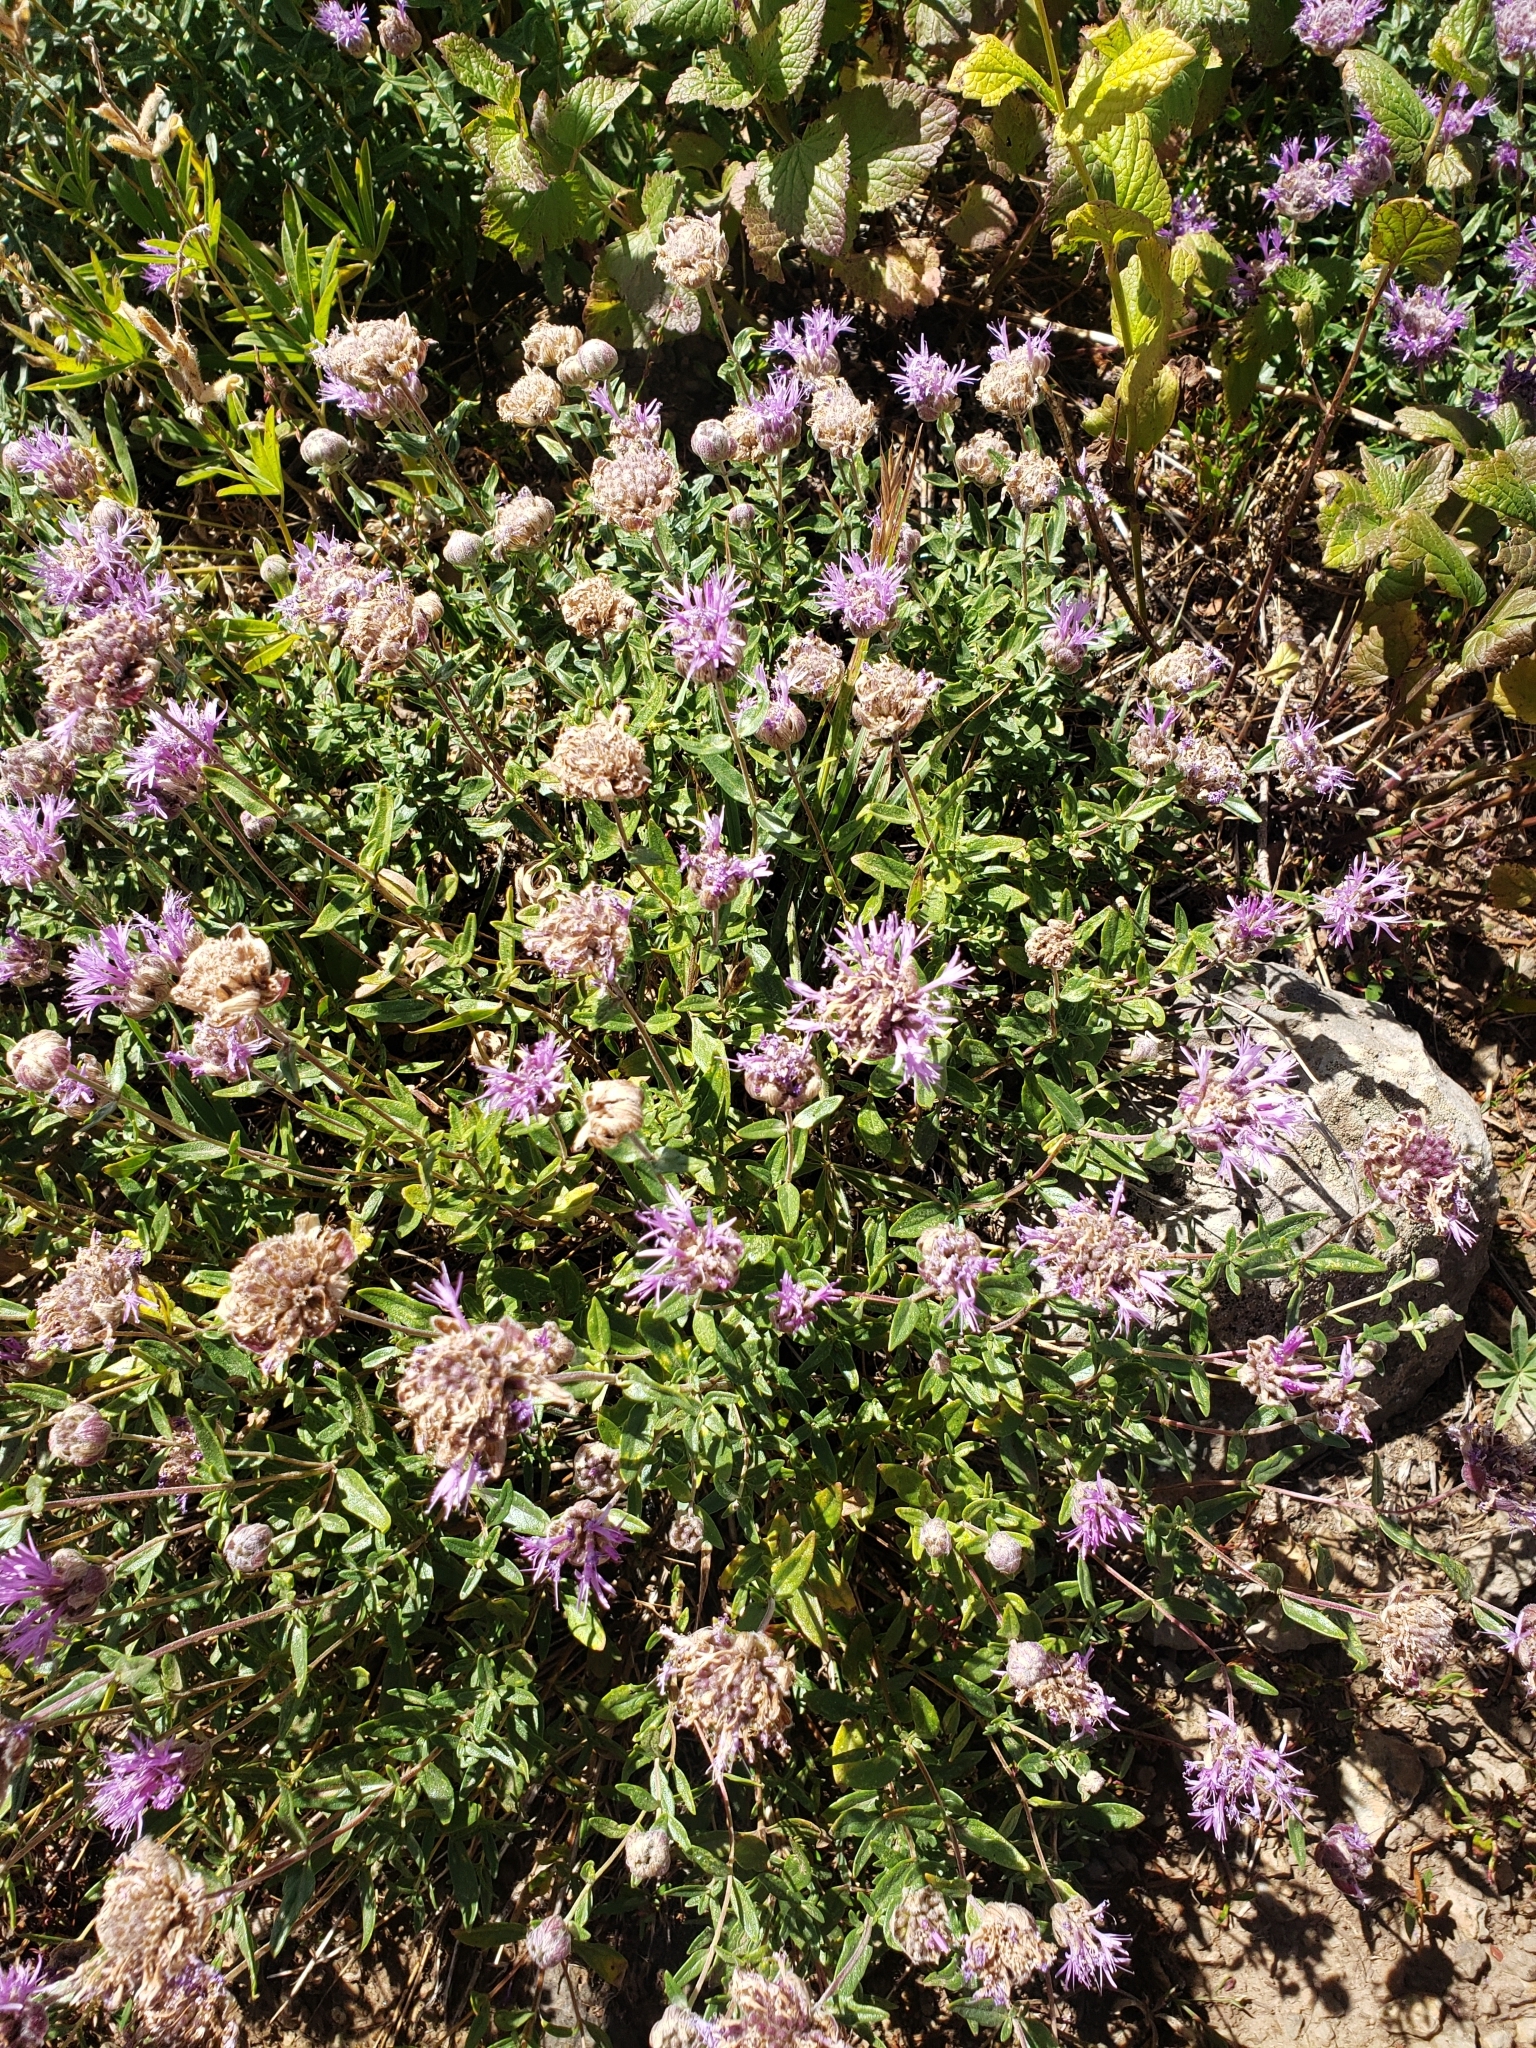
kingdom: Plantae
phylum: Tracheophyta
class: Magnoliopsida
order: Lamiales
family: Lamiaceae
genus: Monardella
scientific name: Monardella odoratissima
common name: Pacific monardella
